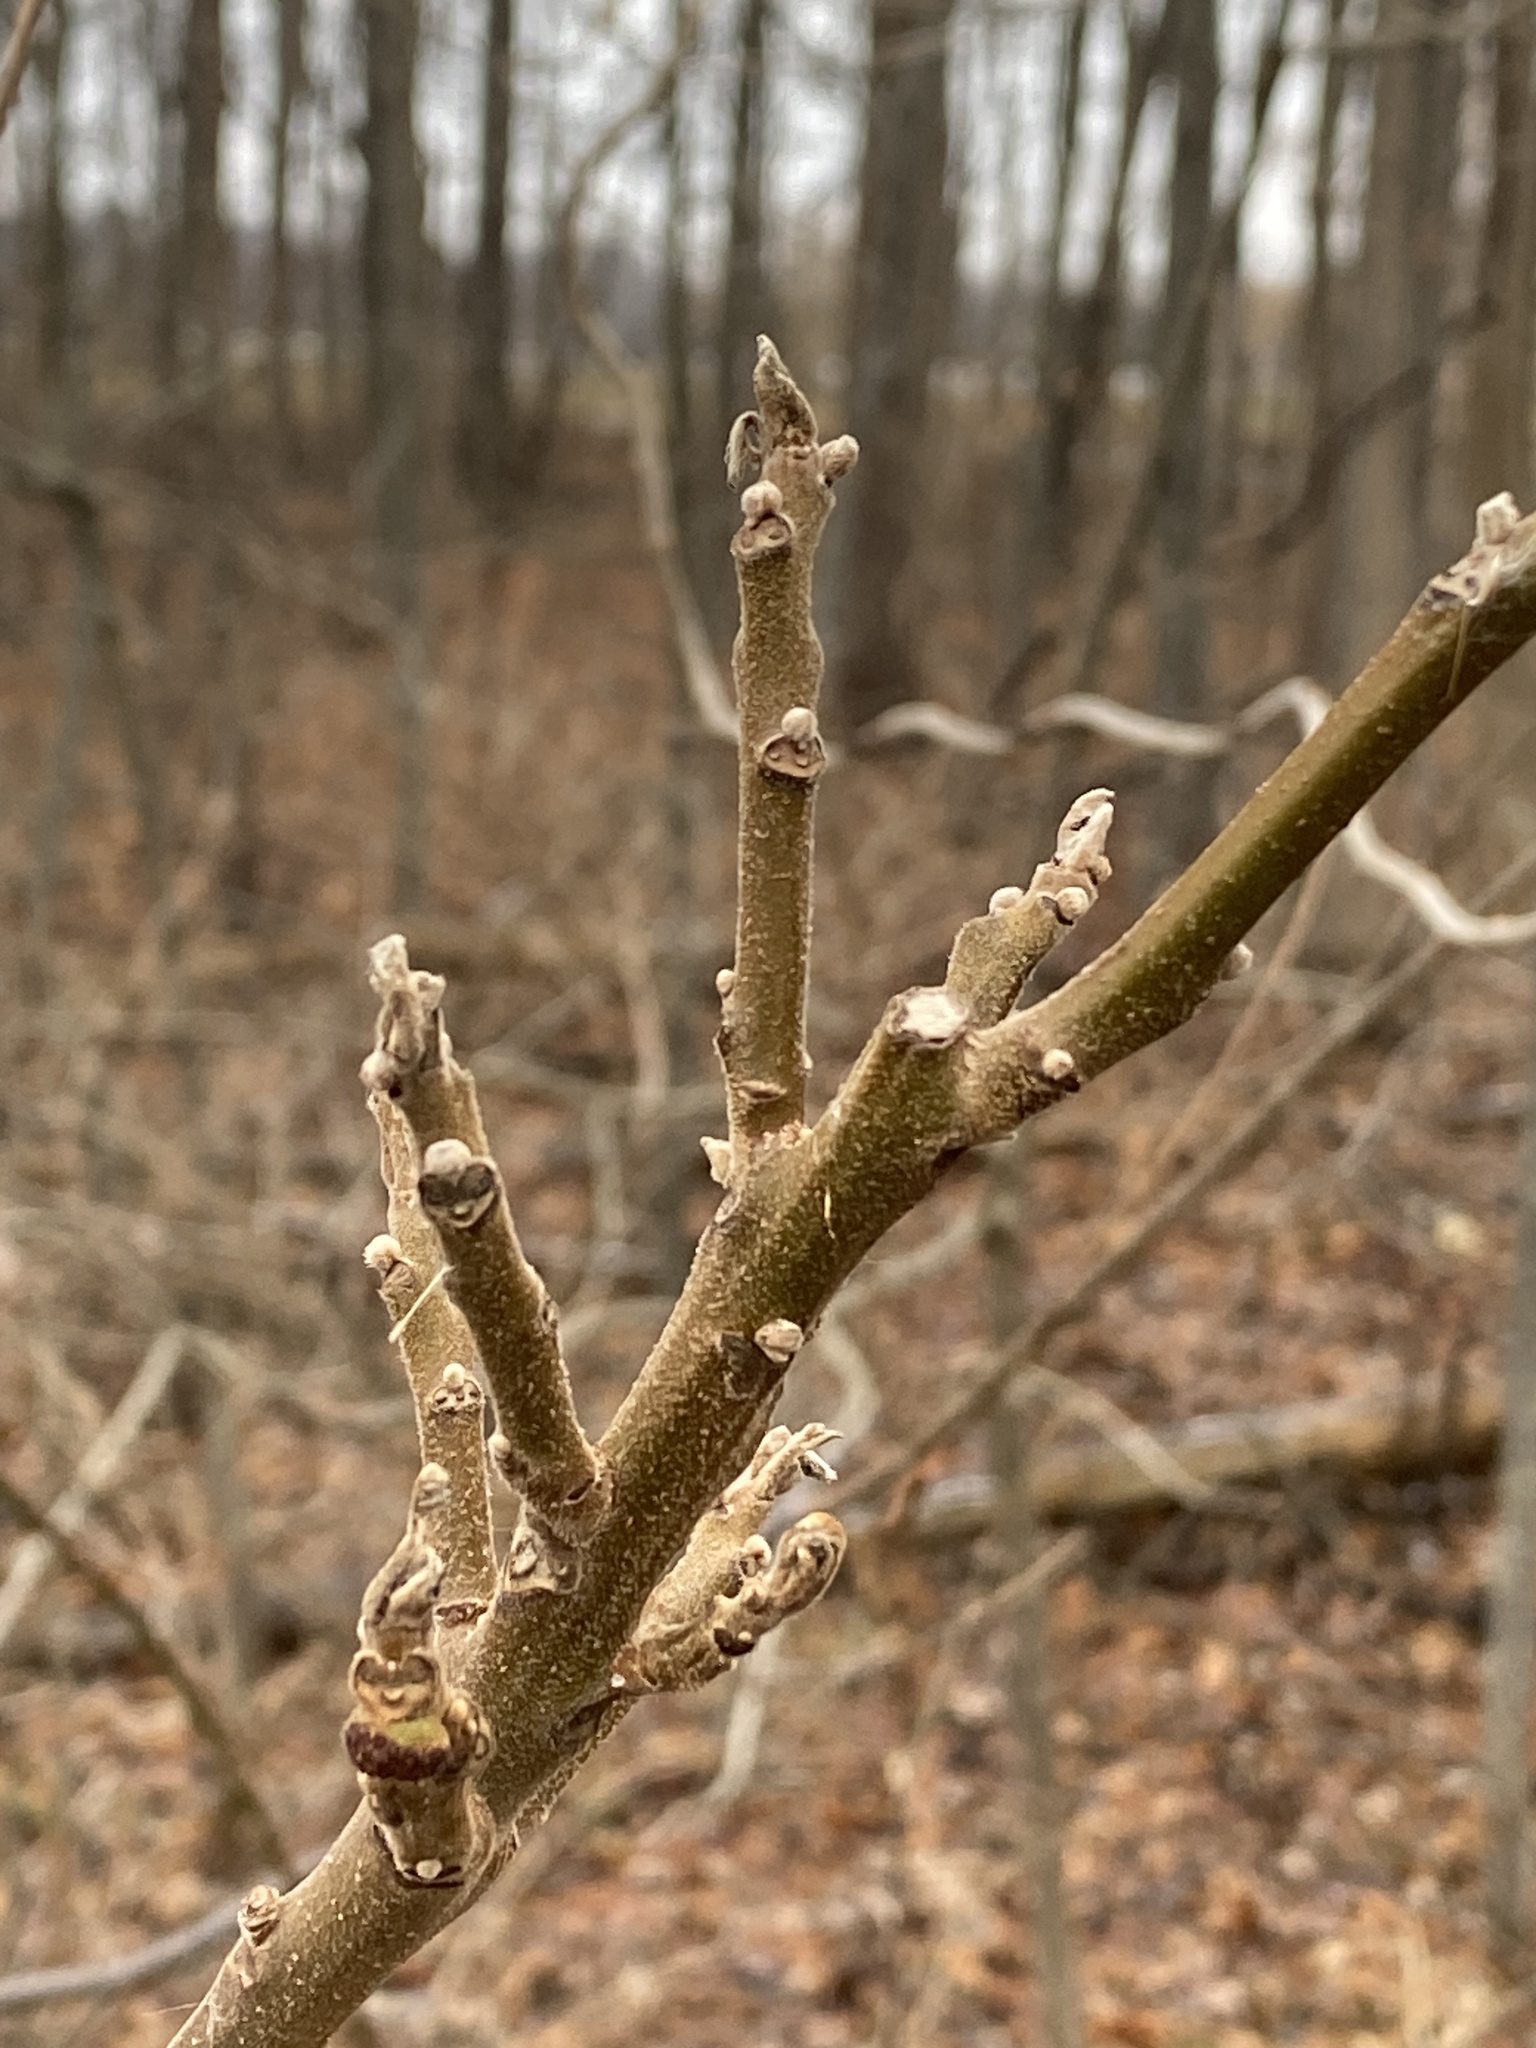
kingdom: Plantae
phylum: Tracheophyta
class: Magnoliopsida
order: Fagales
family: Juglandaceae
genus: Juglans
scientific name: Juglans nigra
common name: Black walnut
